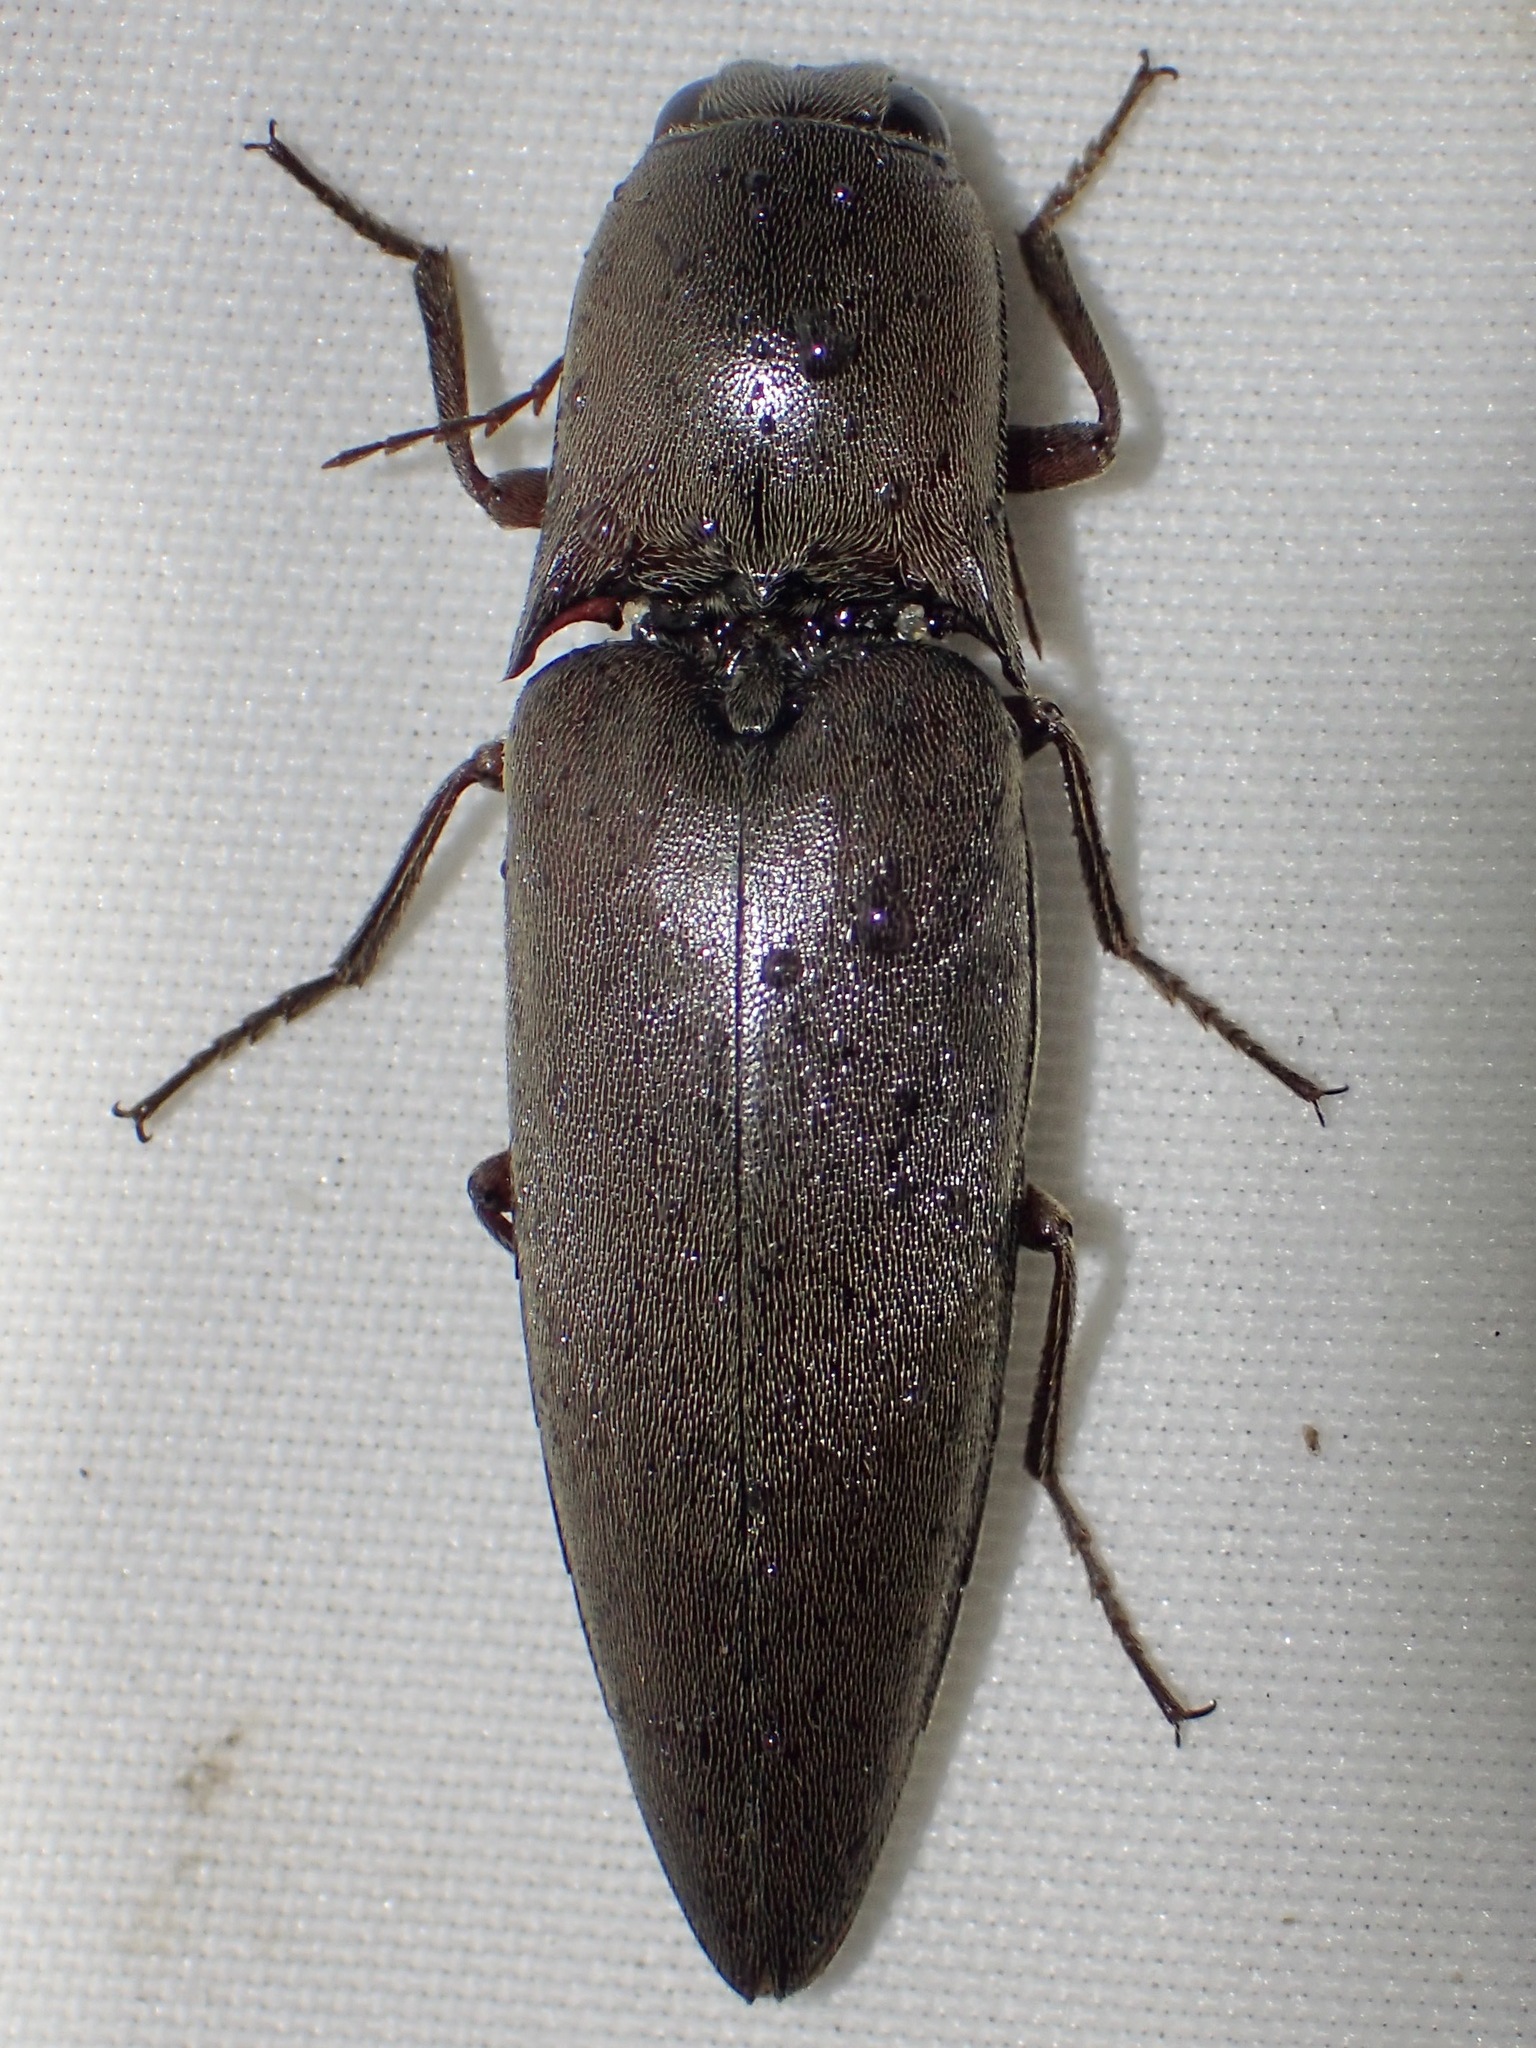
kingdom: Animalia
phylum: Arthropoda
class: Insecta
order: Coleoptera
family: Elateridae
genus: Orthostethus
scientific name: Orthostethus infuscatus
